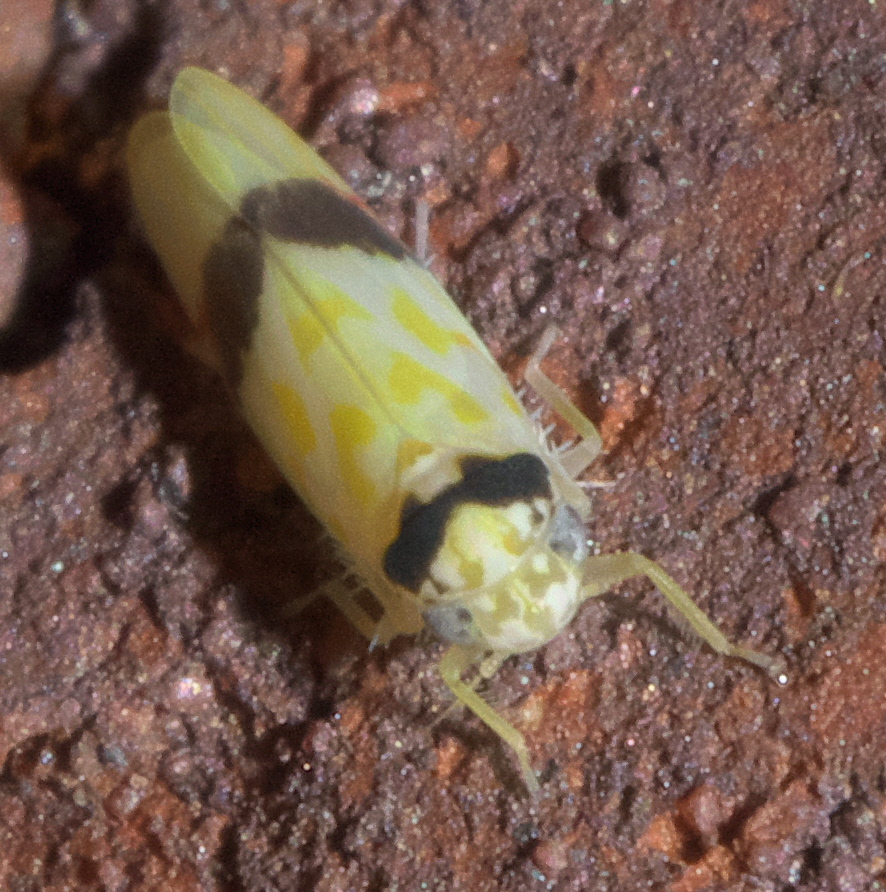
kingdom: Animalia
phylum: Arthropoda
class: Insecta
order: Hemiptera
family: Cicadellidae
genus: Eratoneura
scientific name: Eratoneura morgani
